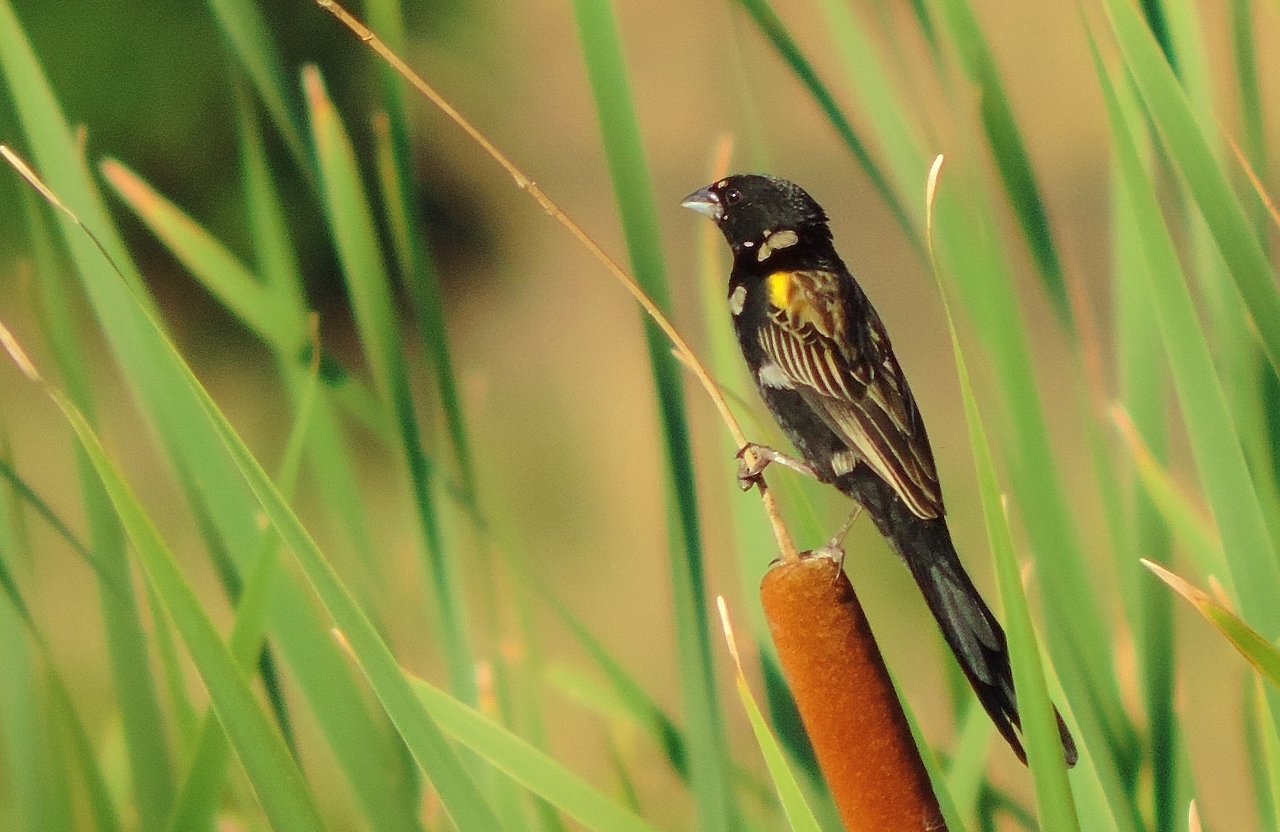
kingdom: Animalia
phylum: Chordata
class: Aves
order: Passeriformes
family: Ploceidae
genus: Euplectes
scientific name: Euplectes macroura
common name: Yellow-mantled widowbird
